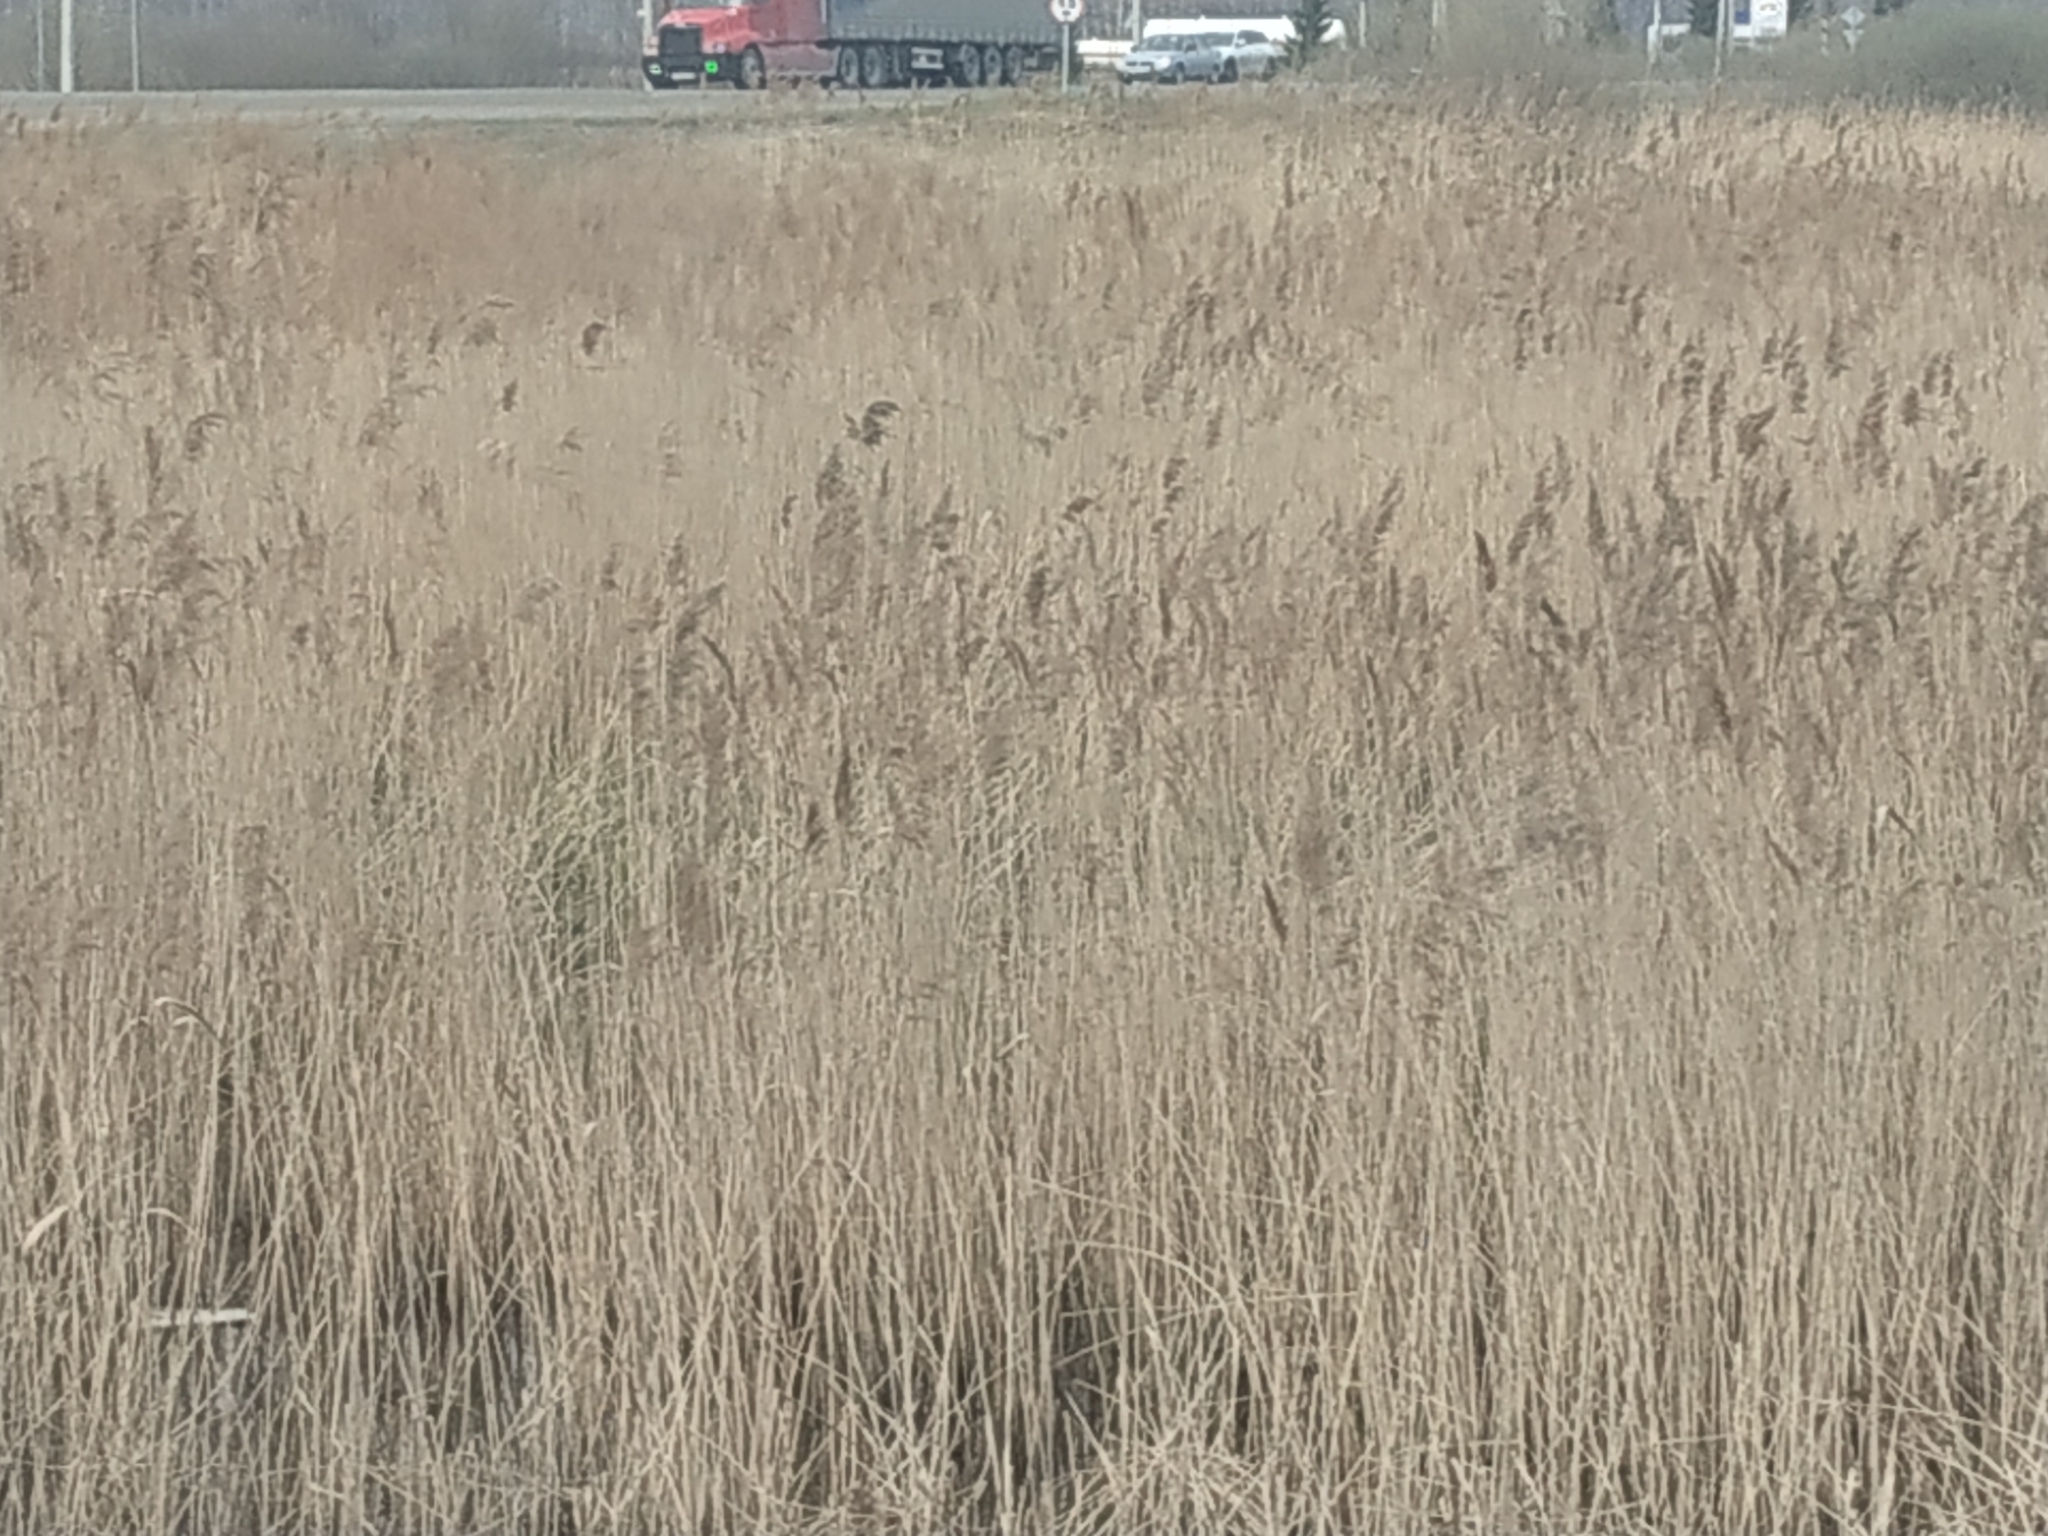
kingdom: Plantae
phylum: Tracheophyta
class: Liliopsida
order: Poales
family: Poaceae
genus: Phragmites
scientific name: Phragmites australis
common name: Common reed
